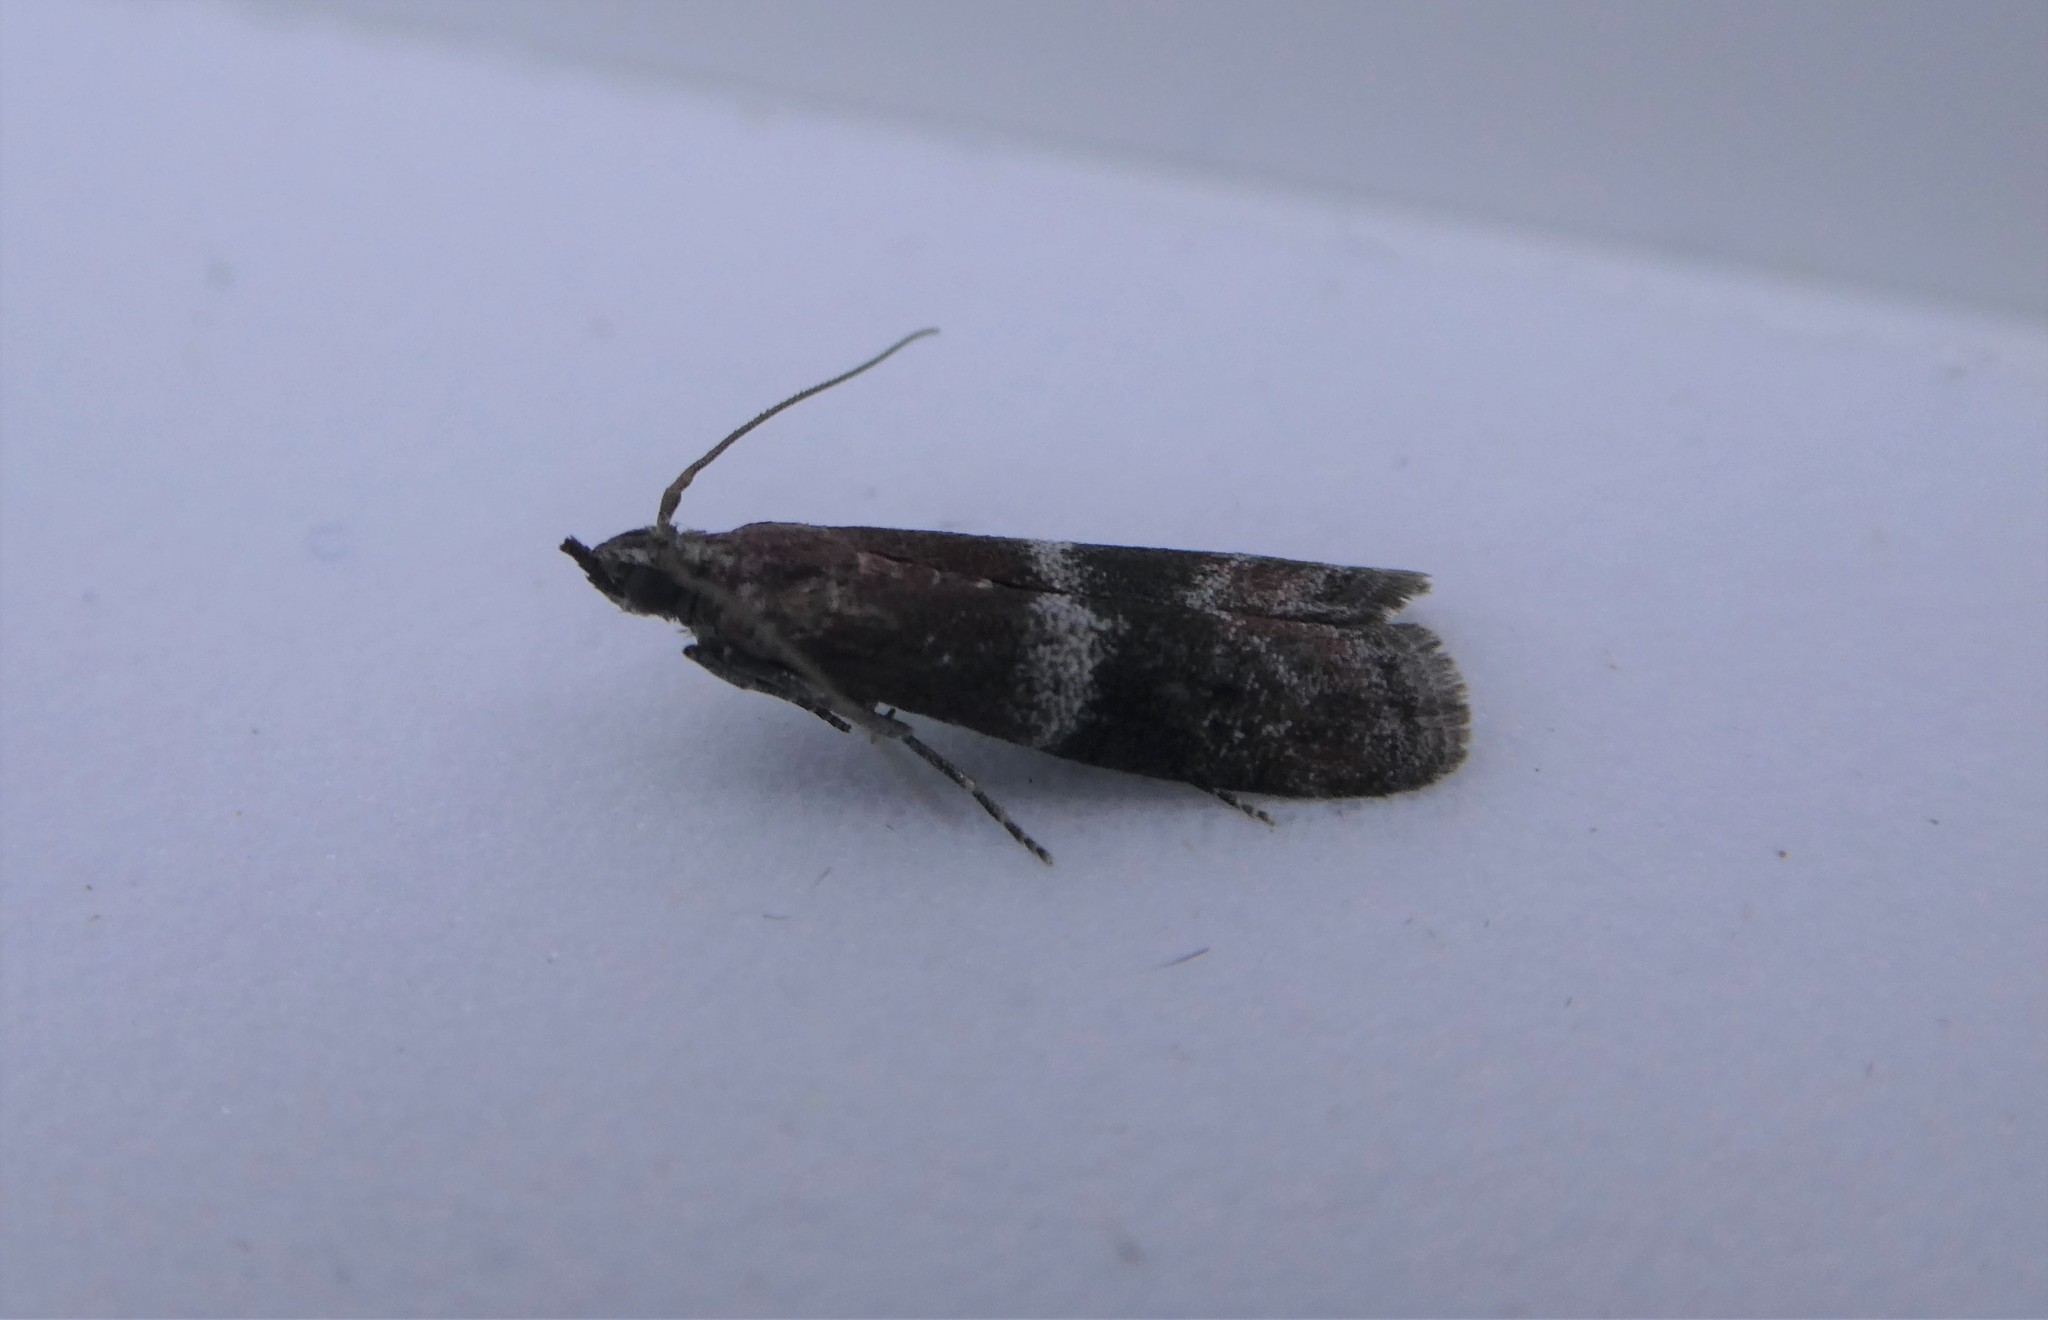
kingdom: Animalia
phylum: Arthropoda
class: Insecta
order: Lepidoptera
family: Pyralidae
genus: Moodna
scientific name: Moodna ostrinella
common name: Darker moodna moth
